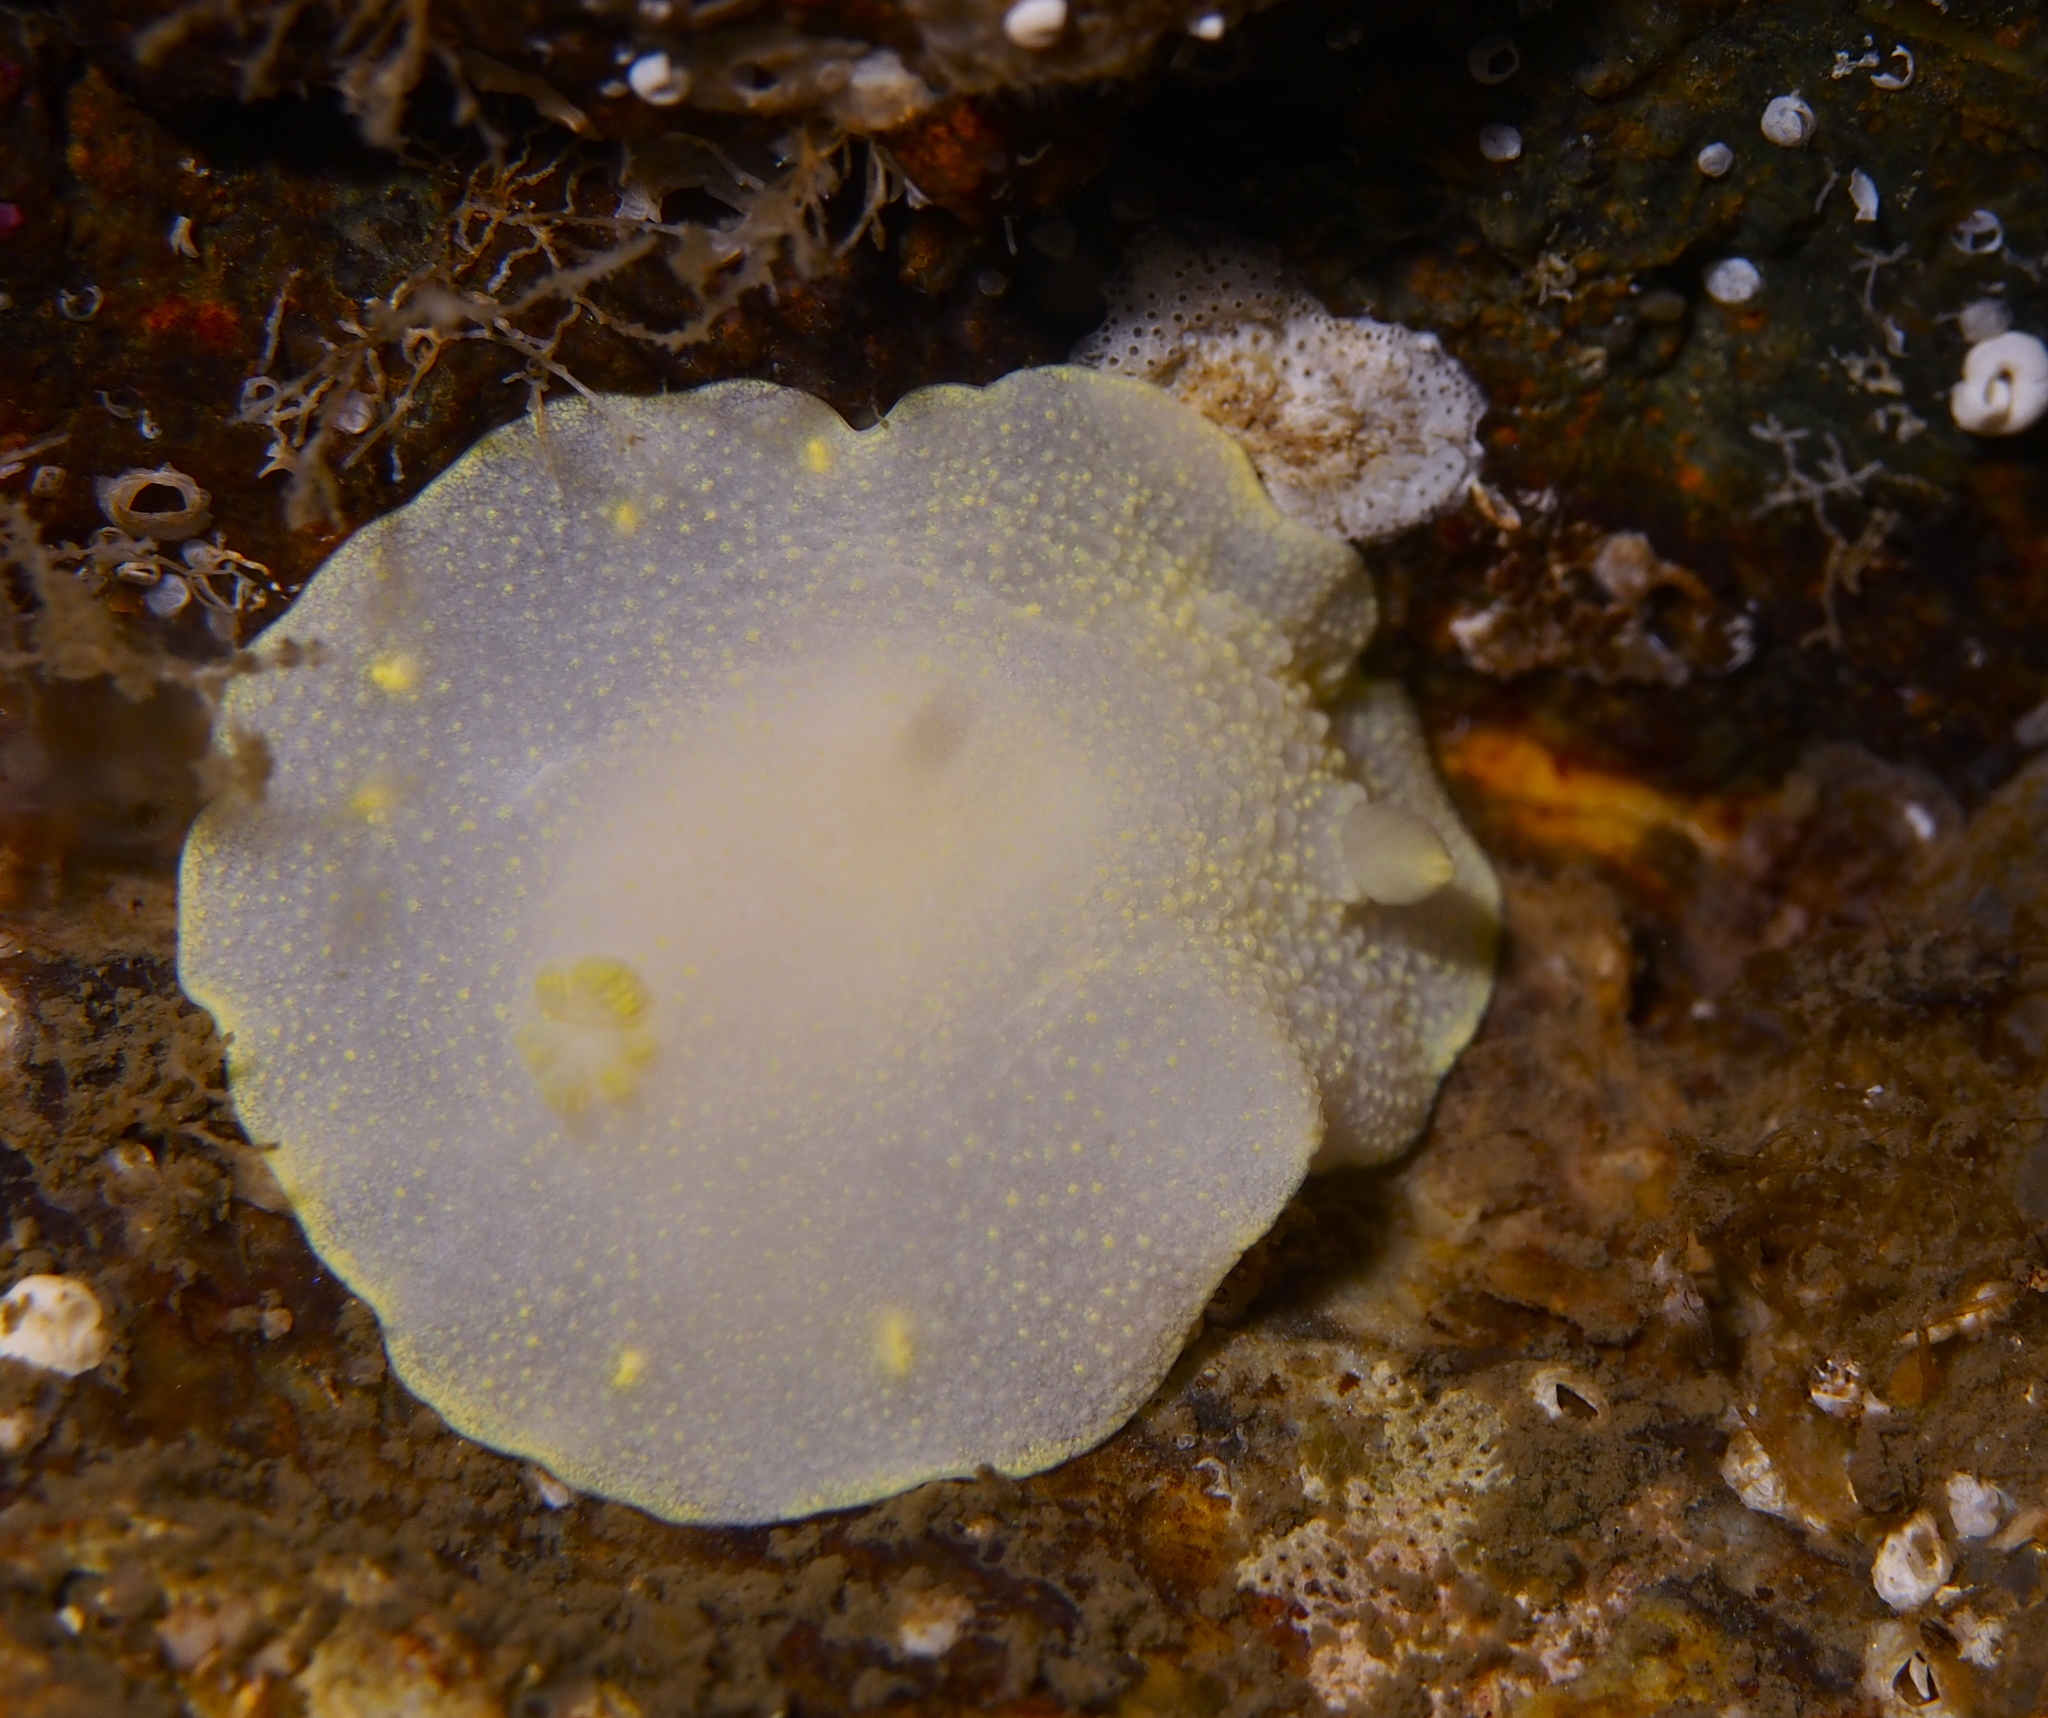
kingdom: Animalia
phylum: Mollusca
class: Gastropoda
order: Nudibranchia
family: Cadlinidae
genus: Cadlina
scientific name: Cadlina laevis
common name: White atlantic cadlina
